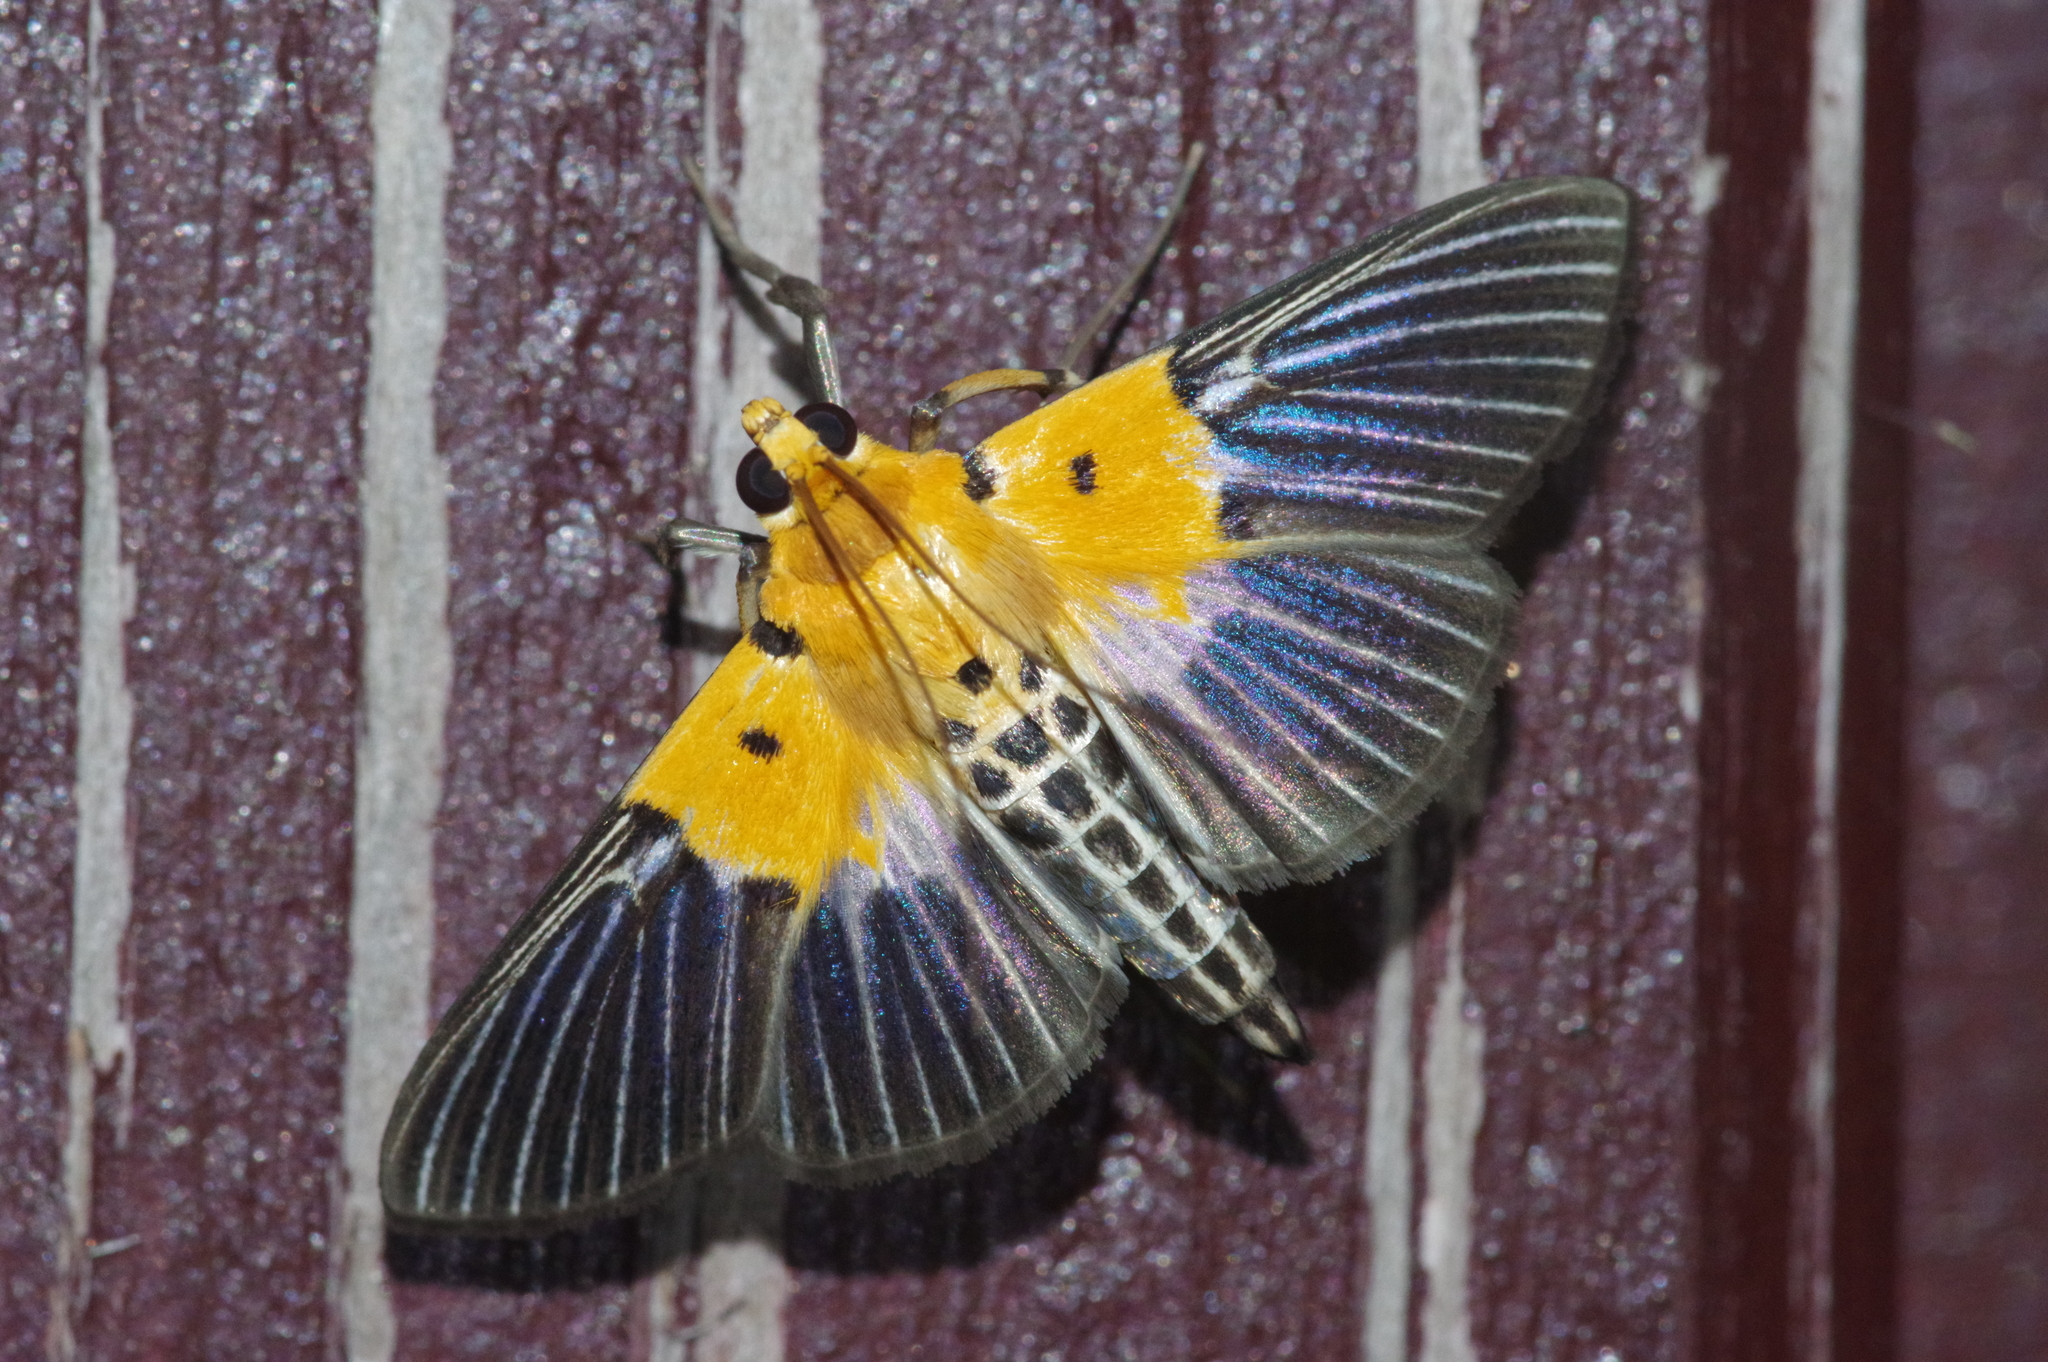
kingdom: Animalia
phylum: Arthropoda
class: Insecta
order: Lepidoptera
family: Crambidae
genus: Nevrina
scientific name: Nevrina procopia
